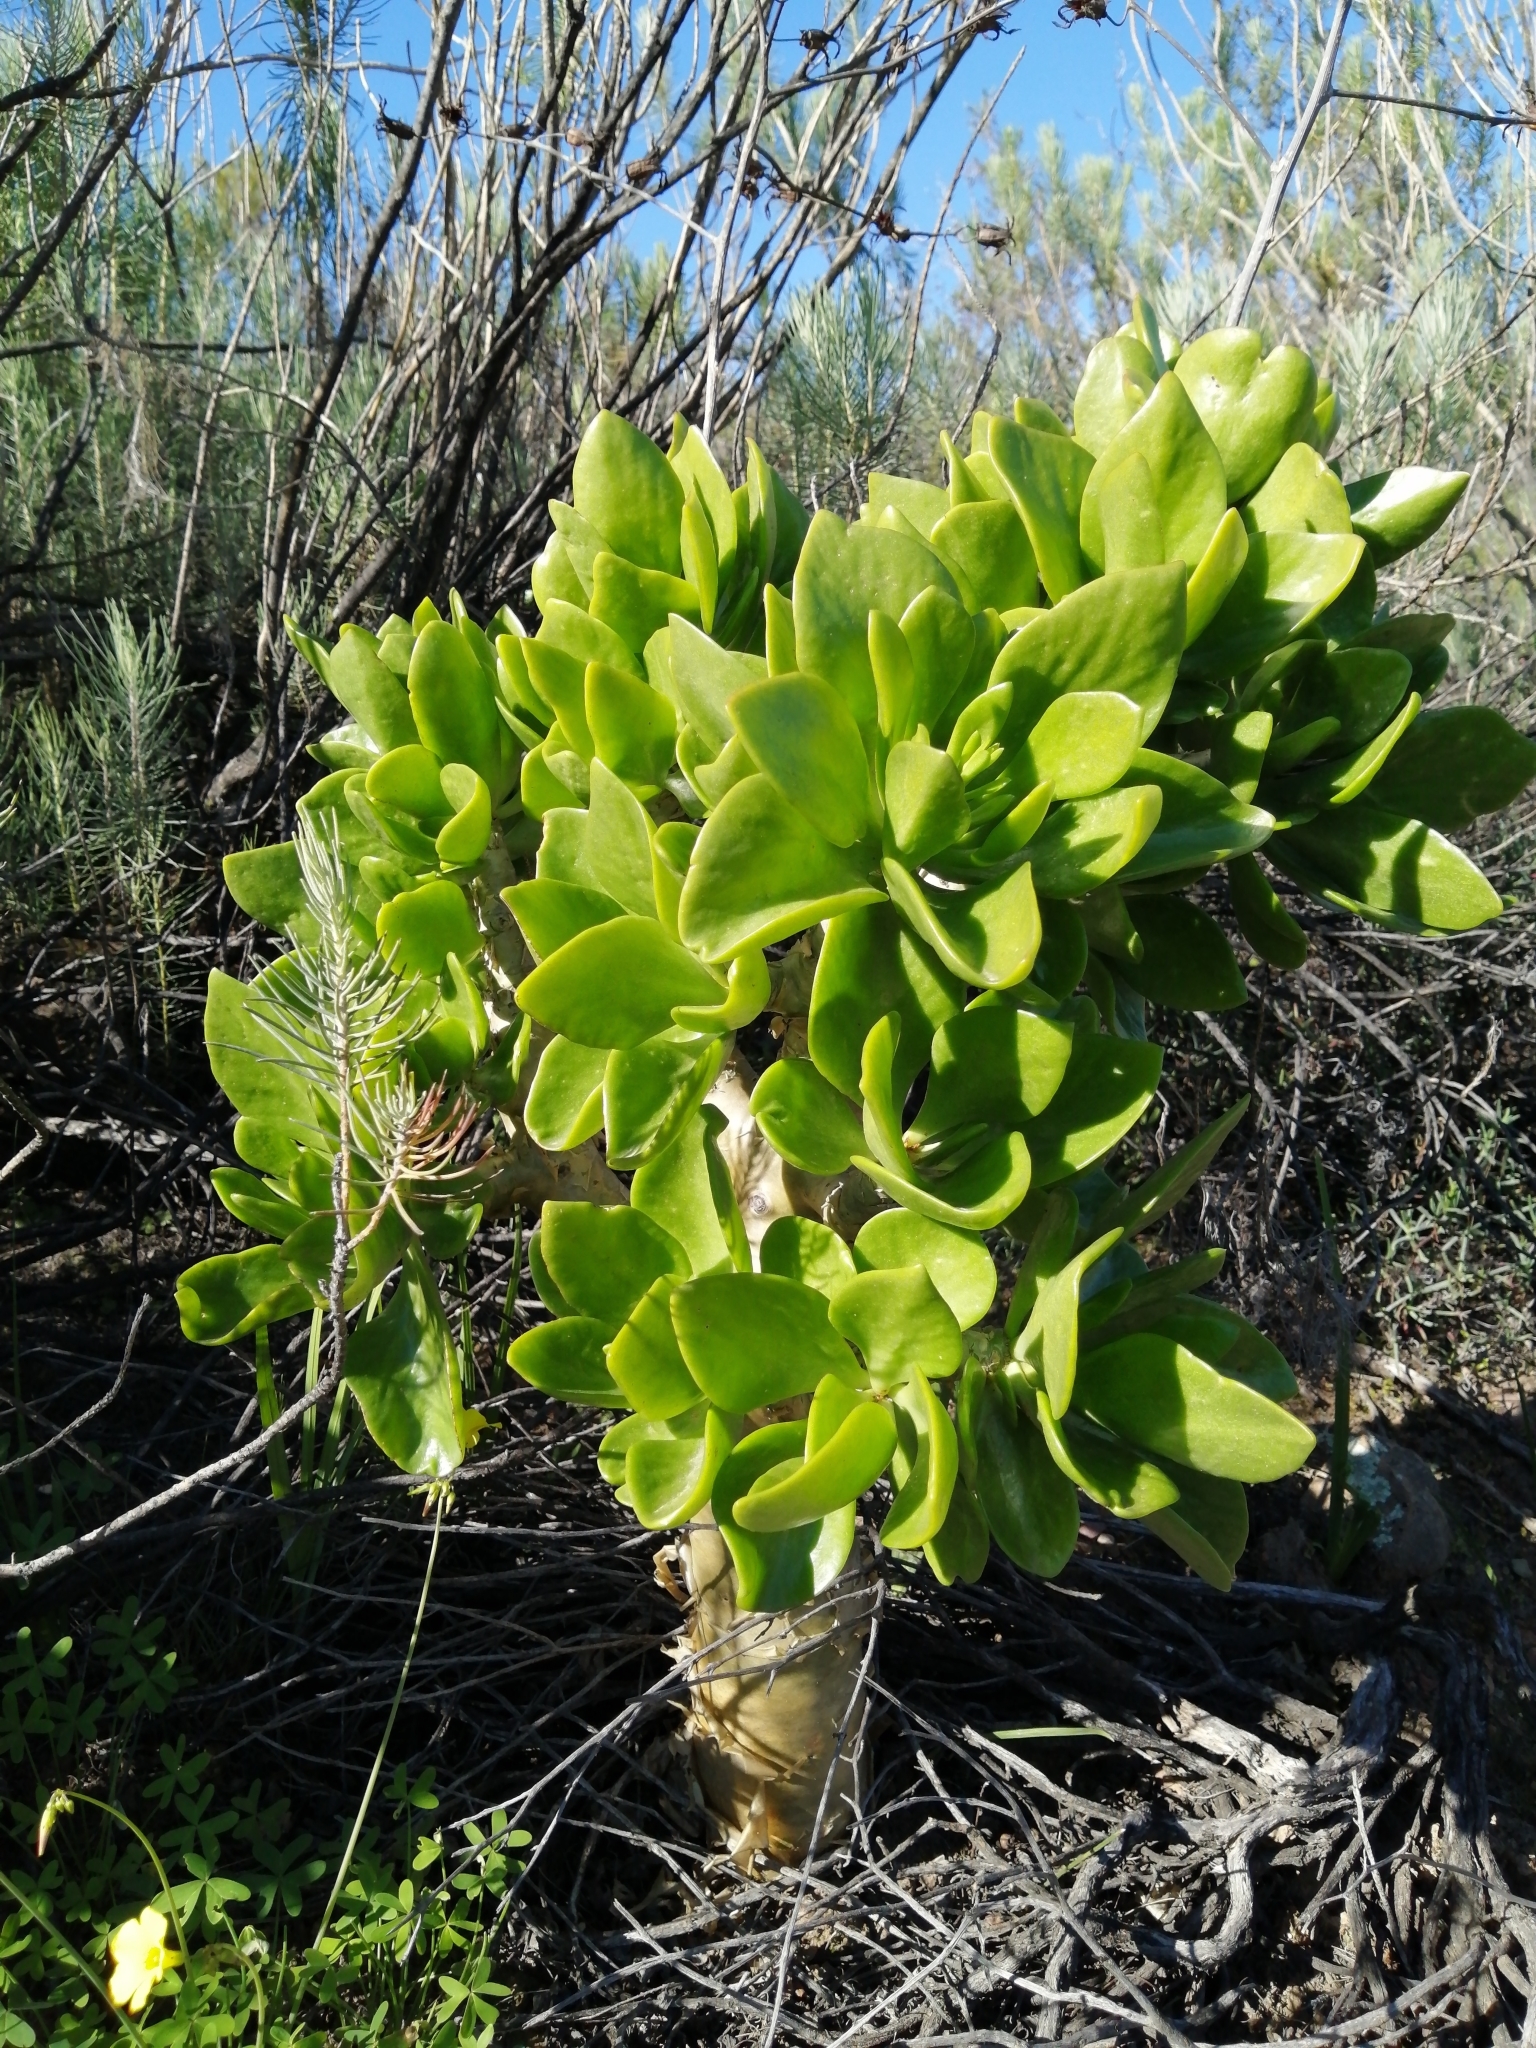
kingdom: Plantae
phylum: Tracheophyta
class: Magnoliopsida
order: Saxifragales
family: Crassulaceae
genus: Tylecodon
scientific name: Tylecodon paniculatus
